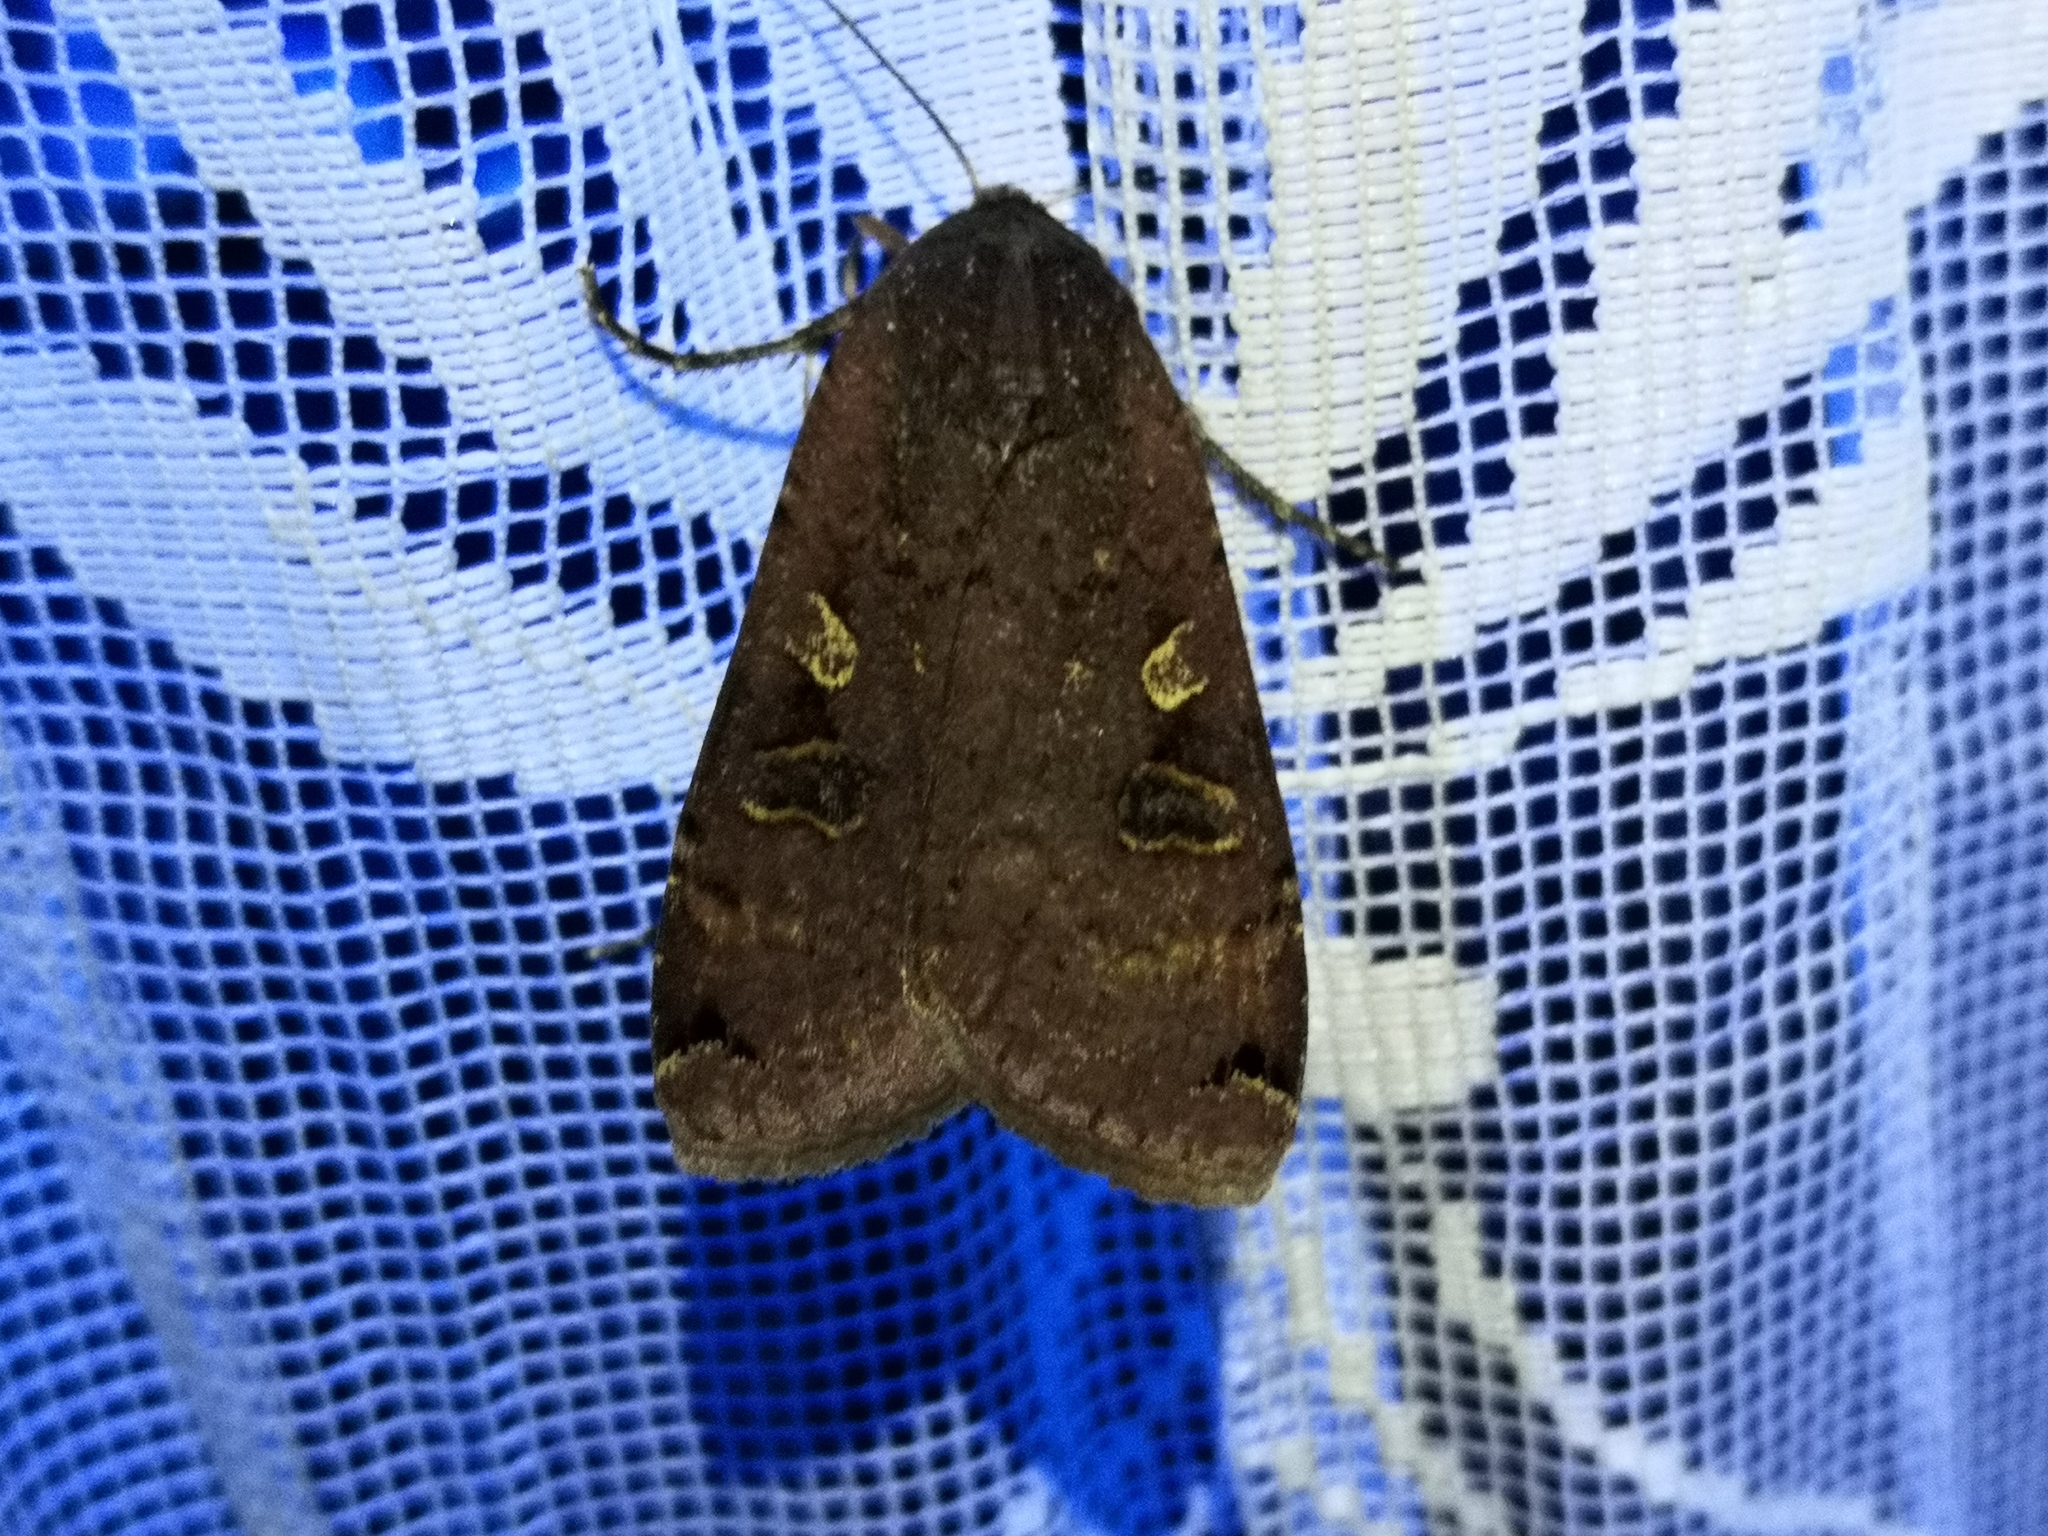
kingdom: Animalia
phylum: Arthropoda
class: Insecta
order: Lepidoptera
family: Noctuidae
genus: Noctua
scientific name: Noctua pronuba
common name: Large yellow underwing
